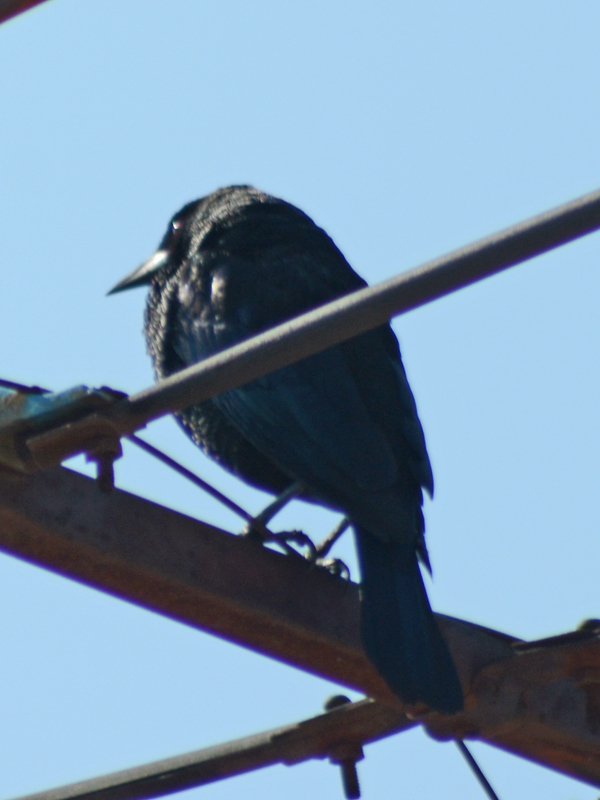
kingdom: Animalia
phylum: Chordata
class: Aves
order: Passeriformes
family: Icteridae
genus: Molothrus
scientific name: Molothrus aeneus
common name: Bronzed cowbird
